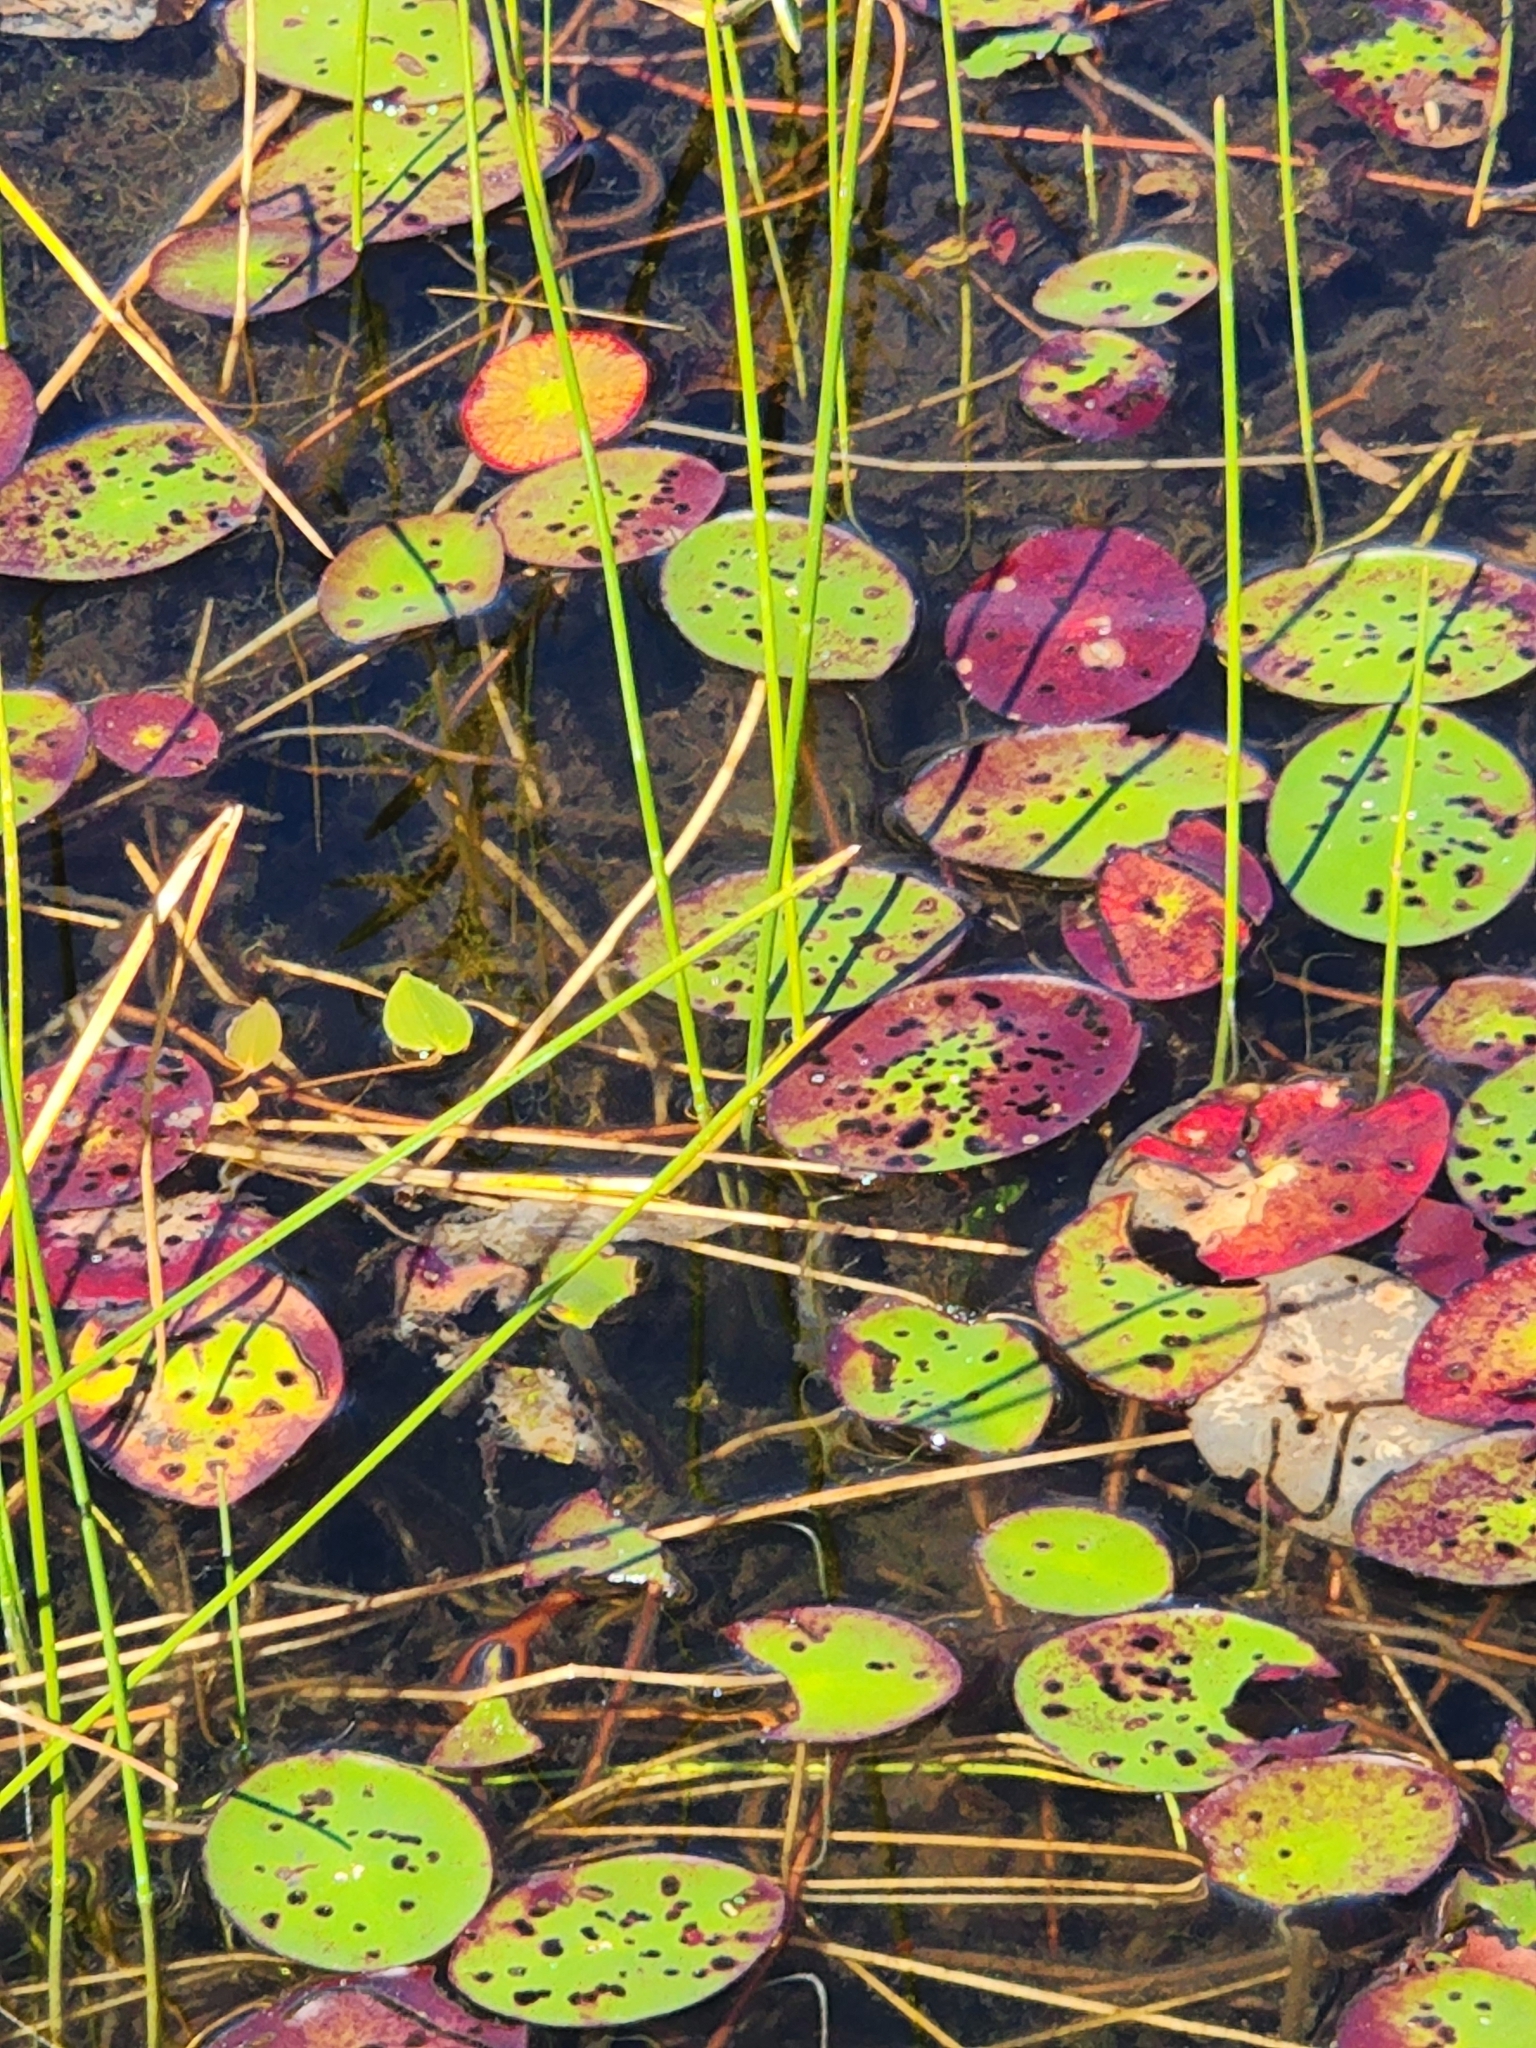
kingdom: Plantae
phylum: Tracheophyta
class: Magnoliopsida
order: Nymphaeales
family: Cabombaceae
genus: Brasenia
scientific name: Brasenia schreberi
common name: Water-shield
